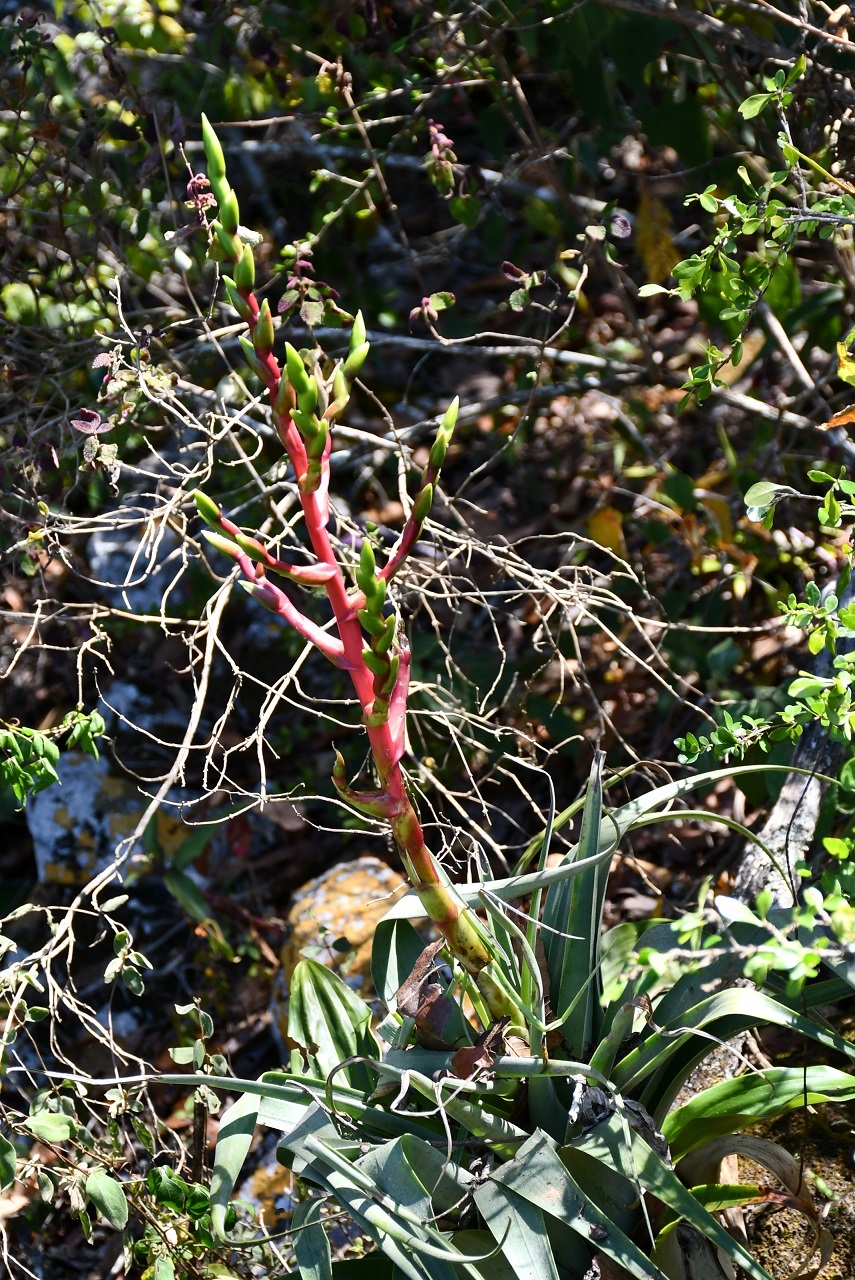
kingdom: Plantae
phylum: Tracheophyta
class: Liliopsida
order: Poales
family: Bromeliaceae
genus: Tillandsia
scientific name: Tillandsia comitanensis
